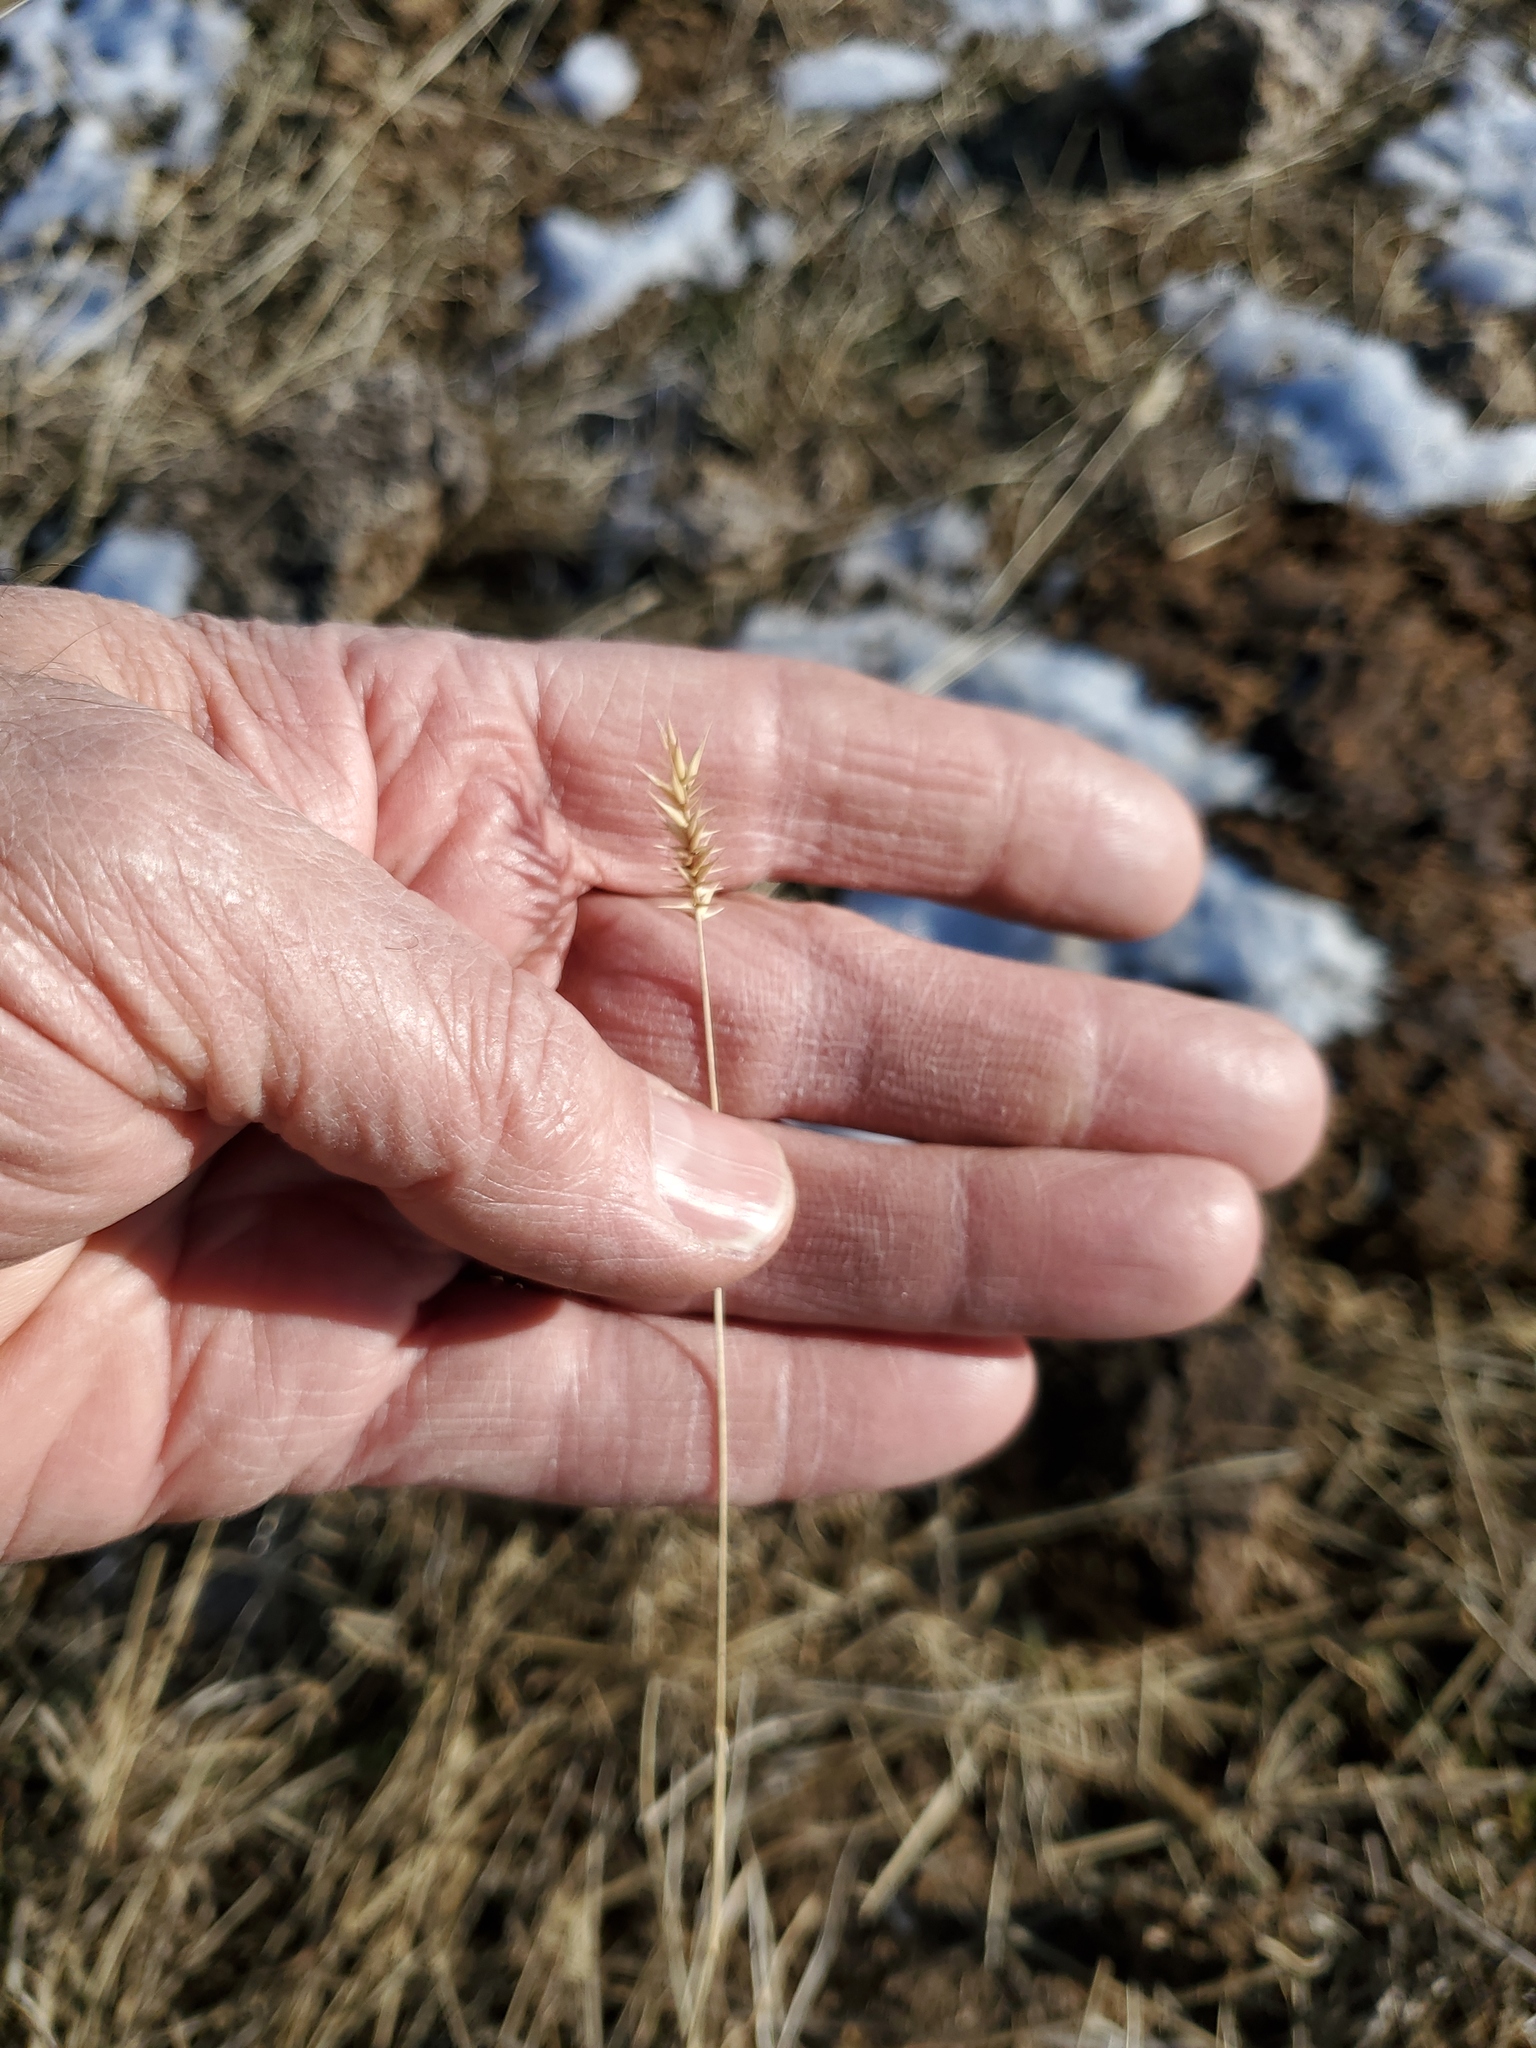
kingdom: Plantae
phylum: Tracheophyta
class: Liliopsida
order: Poales
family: Poaceae
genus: Agropyron
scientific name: Agropyron cristatum
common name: Crested wheatgrass
